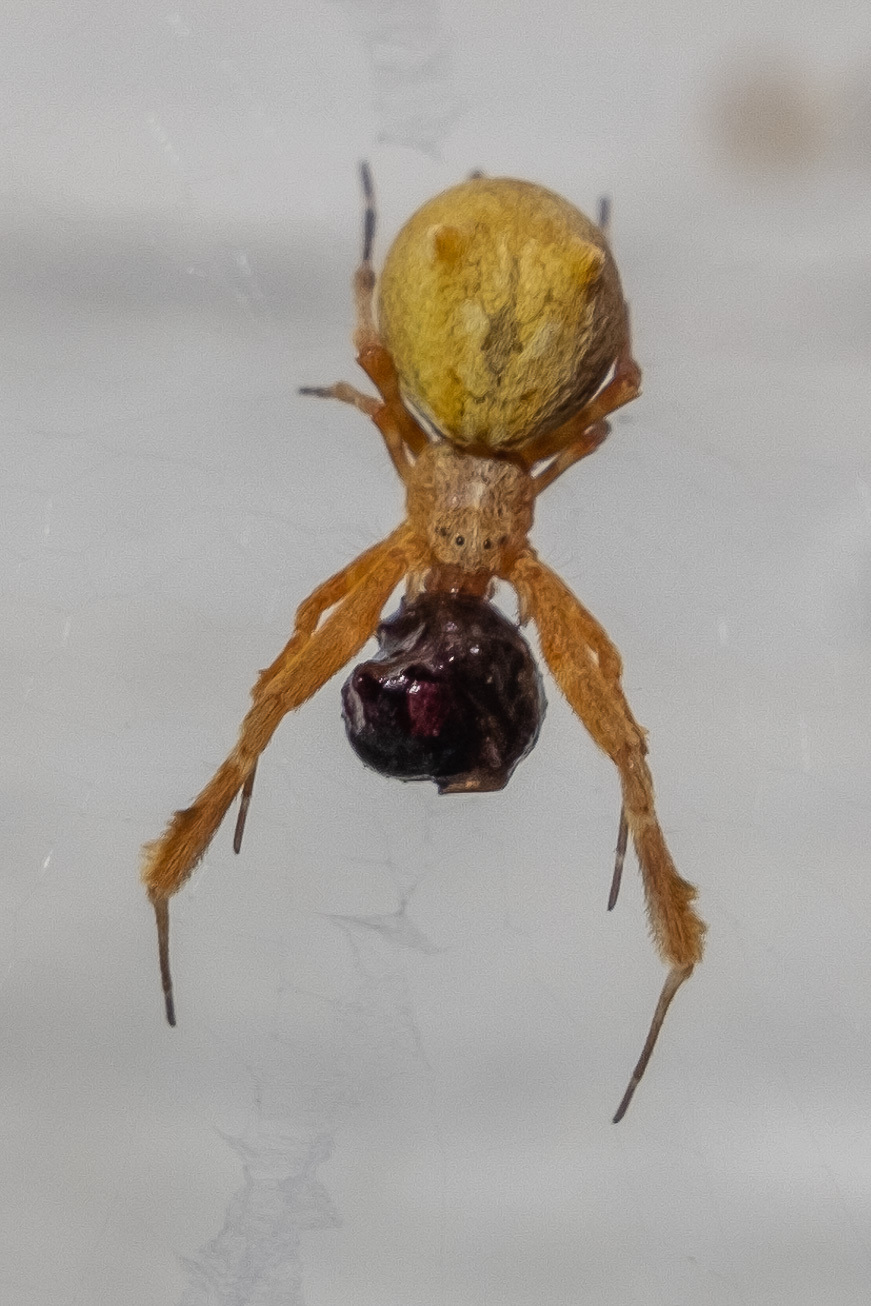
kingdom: Animalia
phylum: Arthropoda
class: Arachnida
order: Araneae
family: Uloboridae
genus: Uloborus
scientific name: Uloborus glomosus
